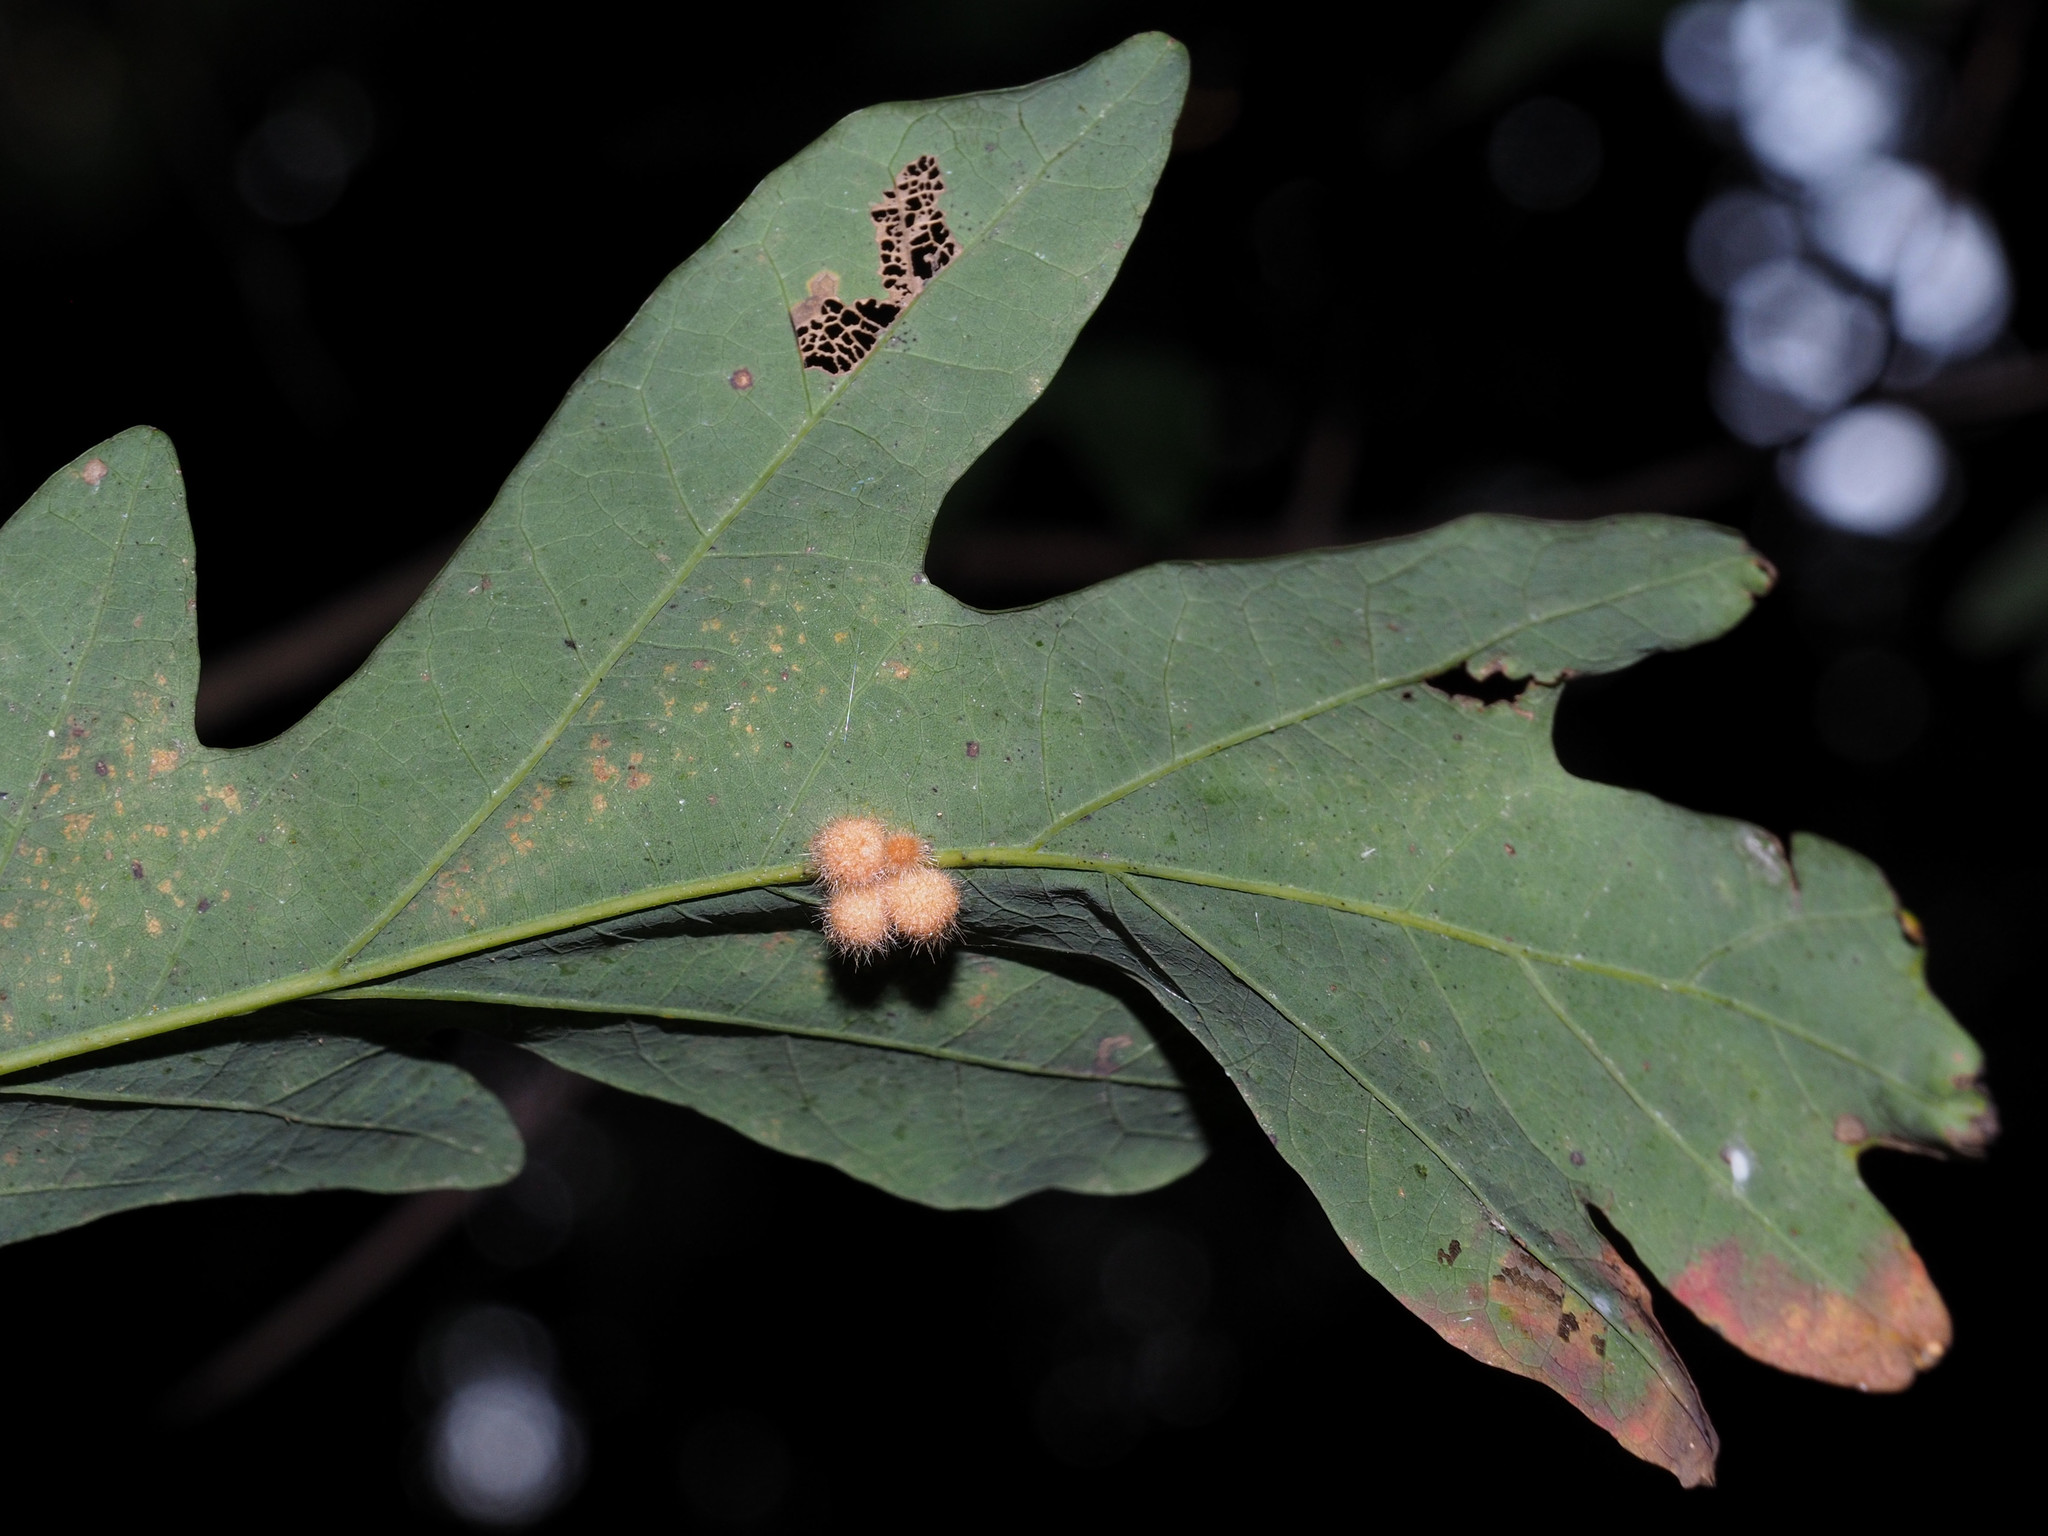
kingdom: Animalia
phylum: Arthropoda
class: Insecta
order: Hymenoptera
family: Cynipidae
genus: Andricus
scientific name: Andricus
